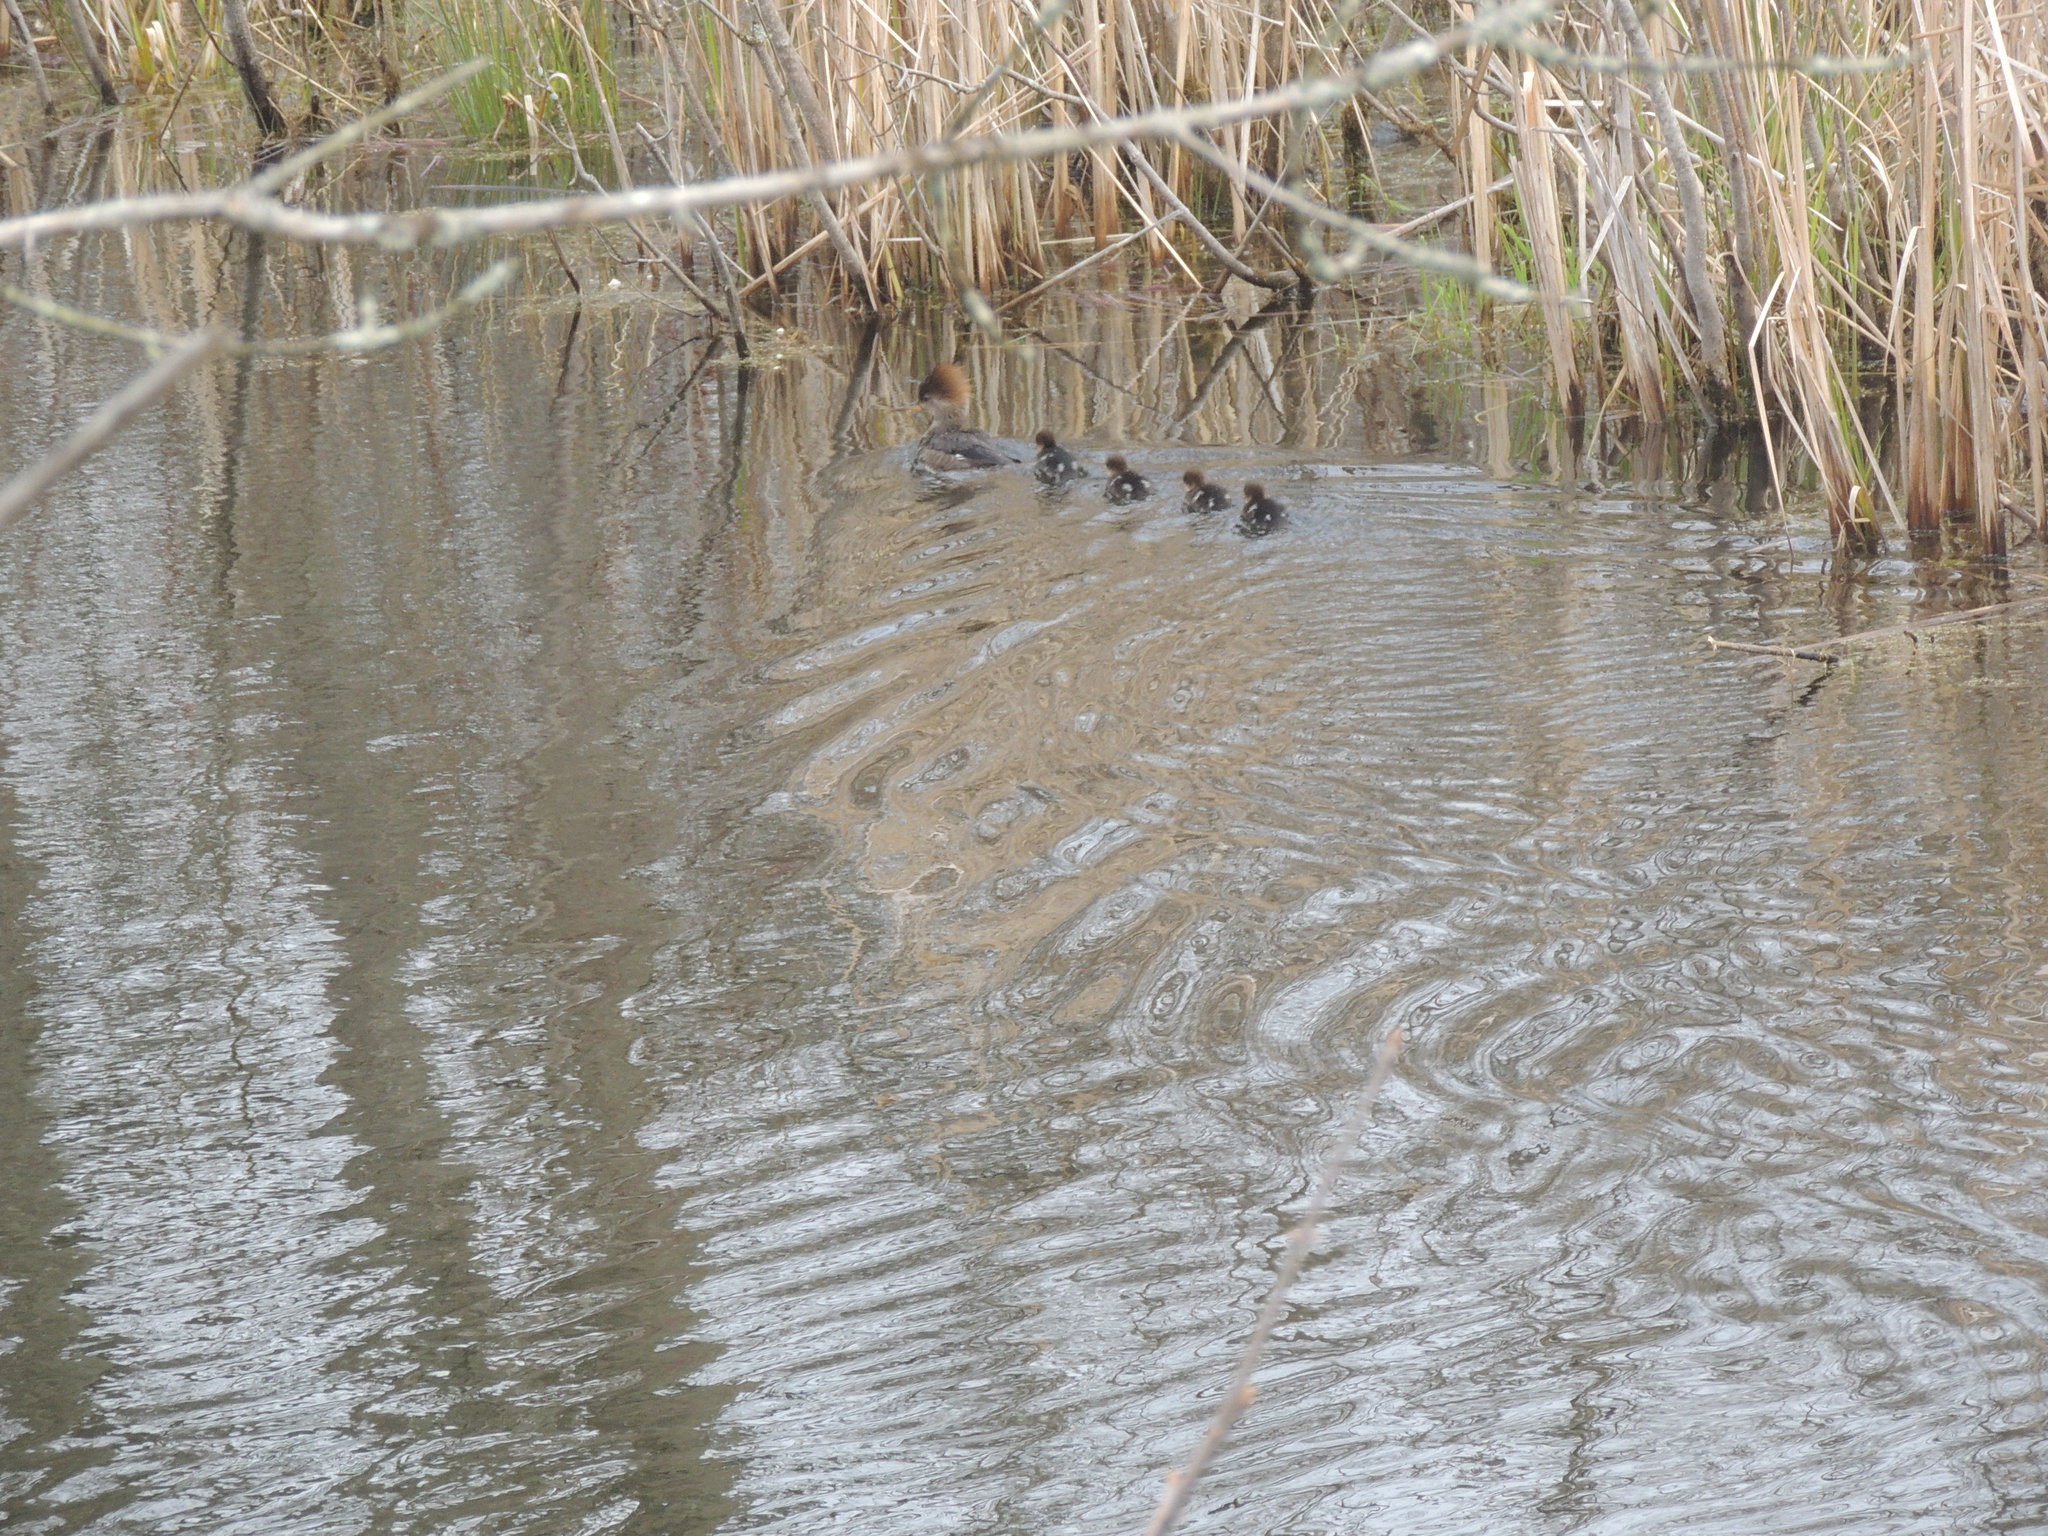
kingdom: Animalia
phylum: Chordata
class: Aves
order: Anseriformes
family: Anatidae
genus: Lophodytes
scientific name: Lophodytes cucullatus
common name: Hooded merganser
